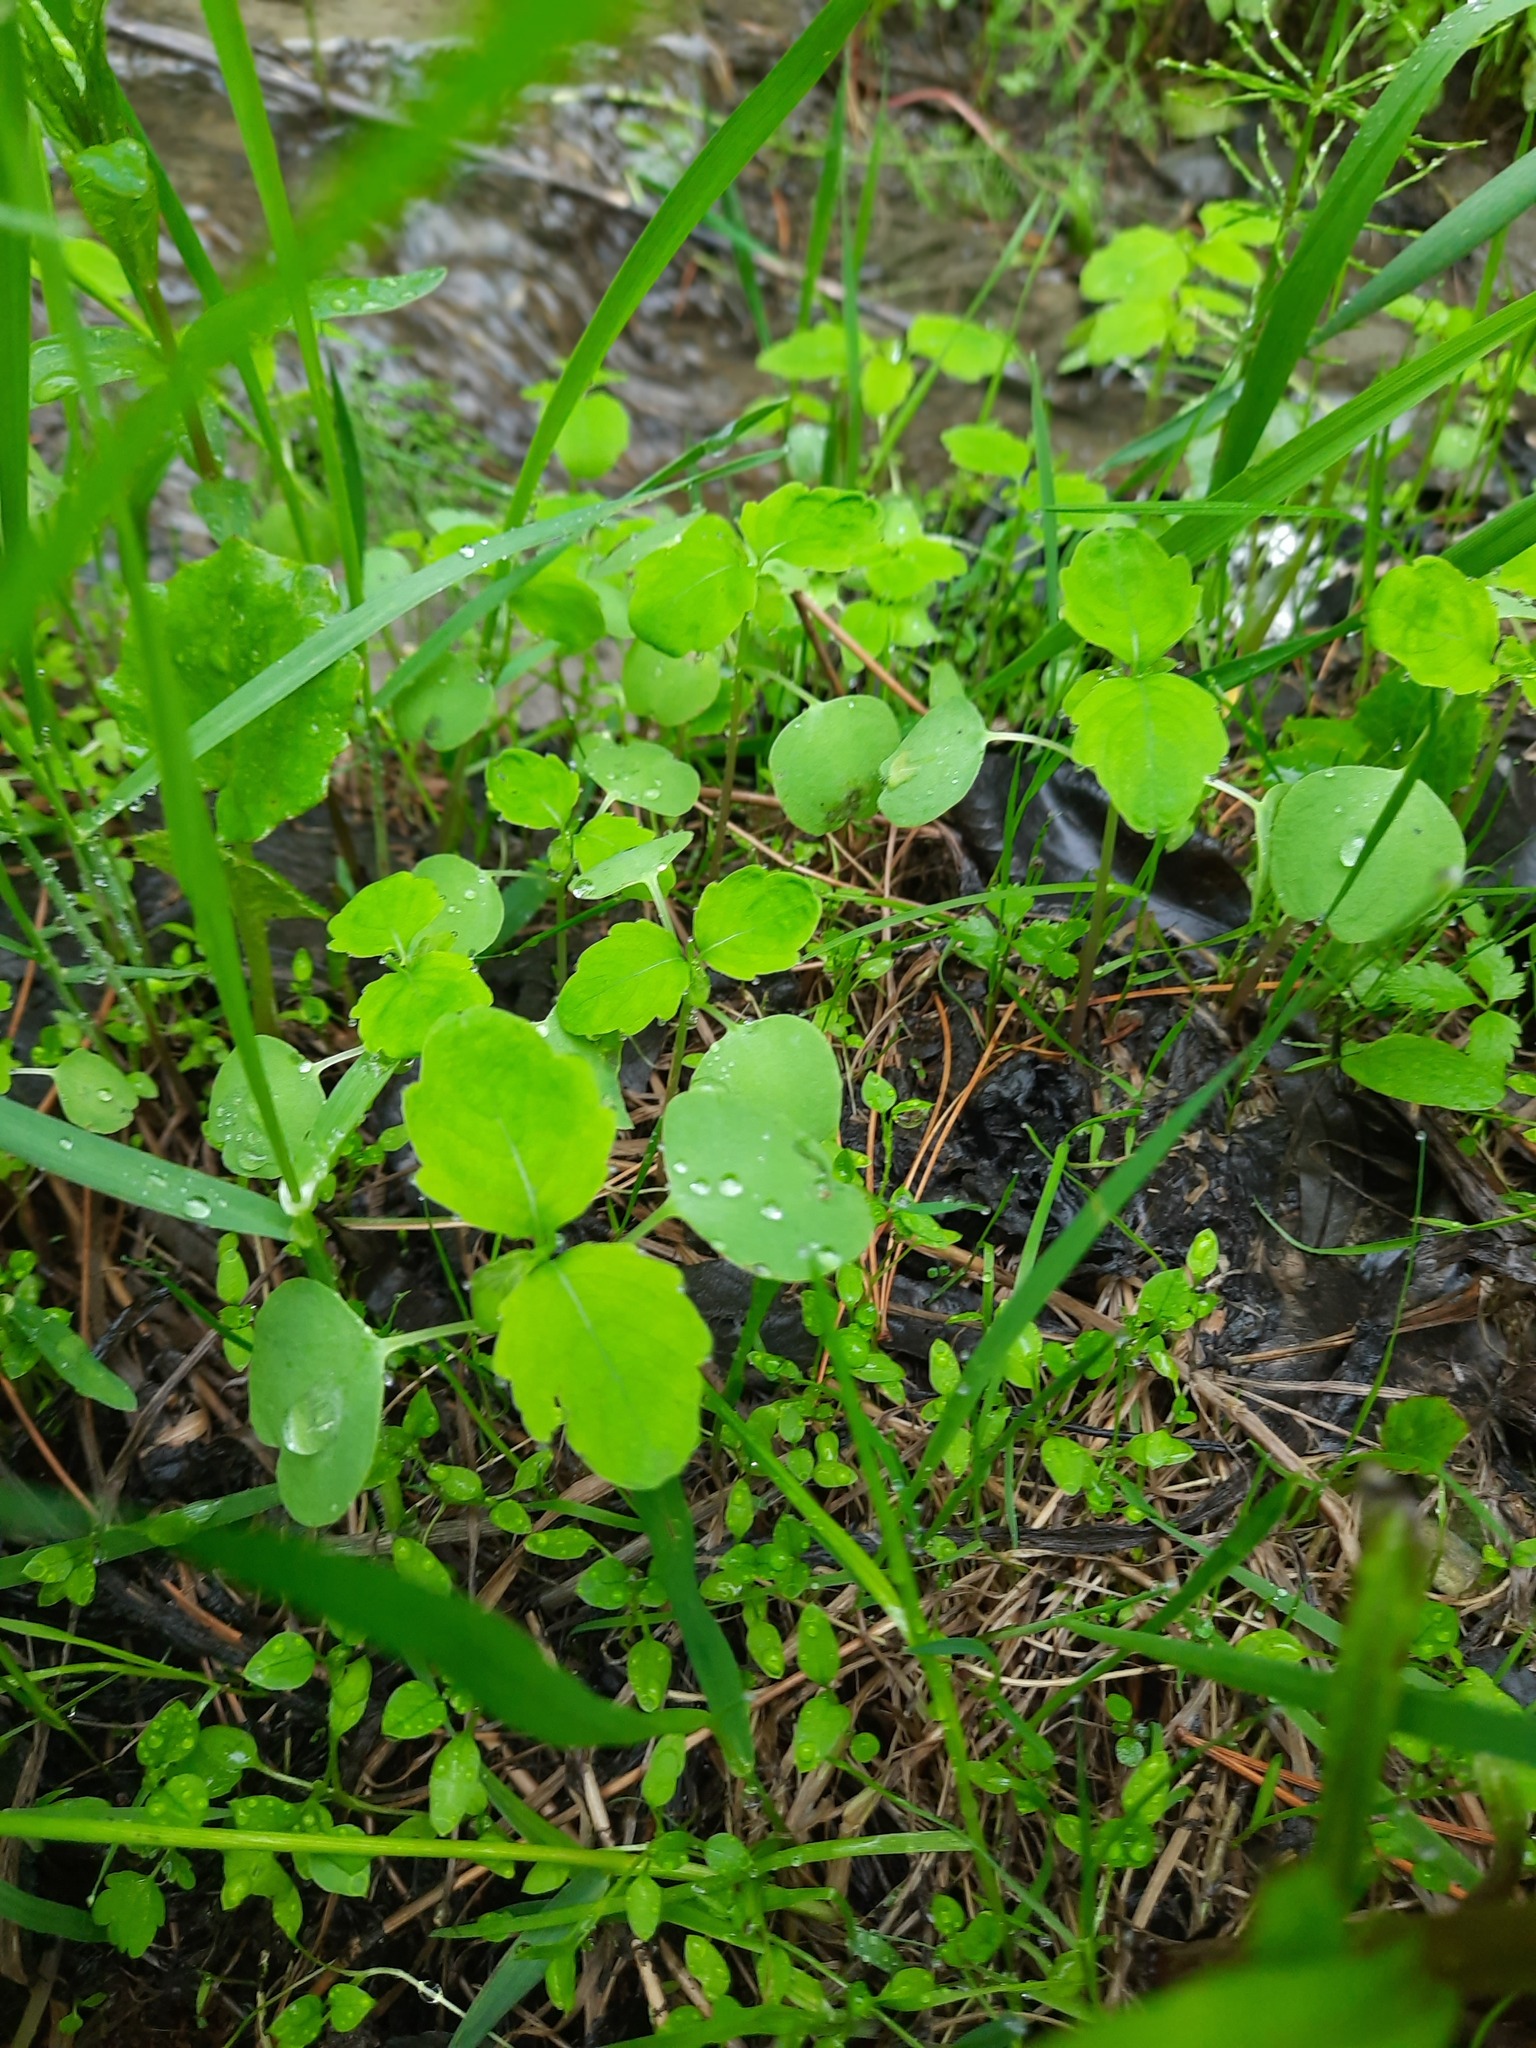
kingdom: Plantae
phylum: Tracheophyta
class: Magnoliopsida
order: Ericales
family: Balsaminaceae
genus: Impatiens
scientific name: Impatiens noli-tangere
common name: Touch-me-not balsam
